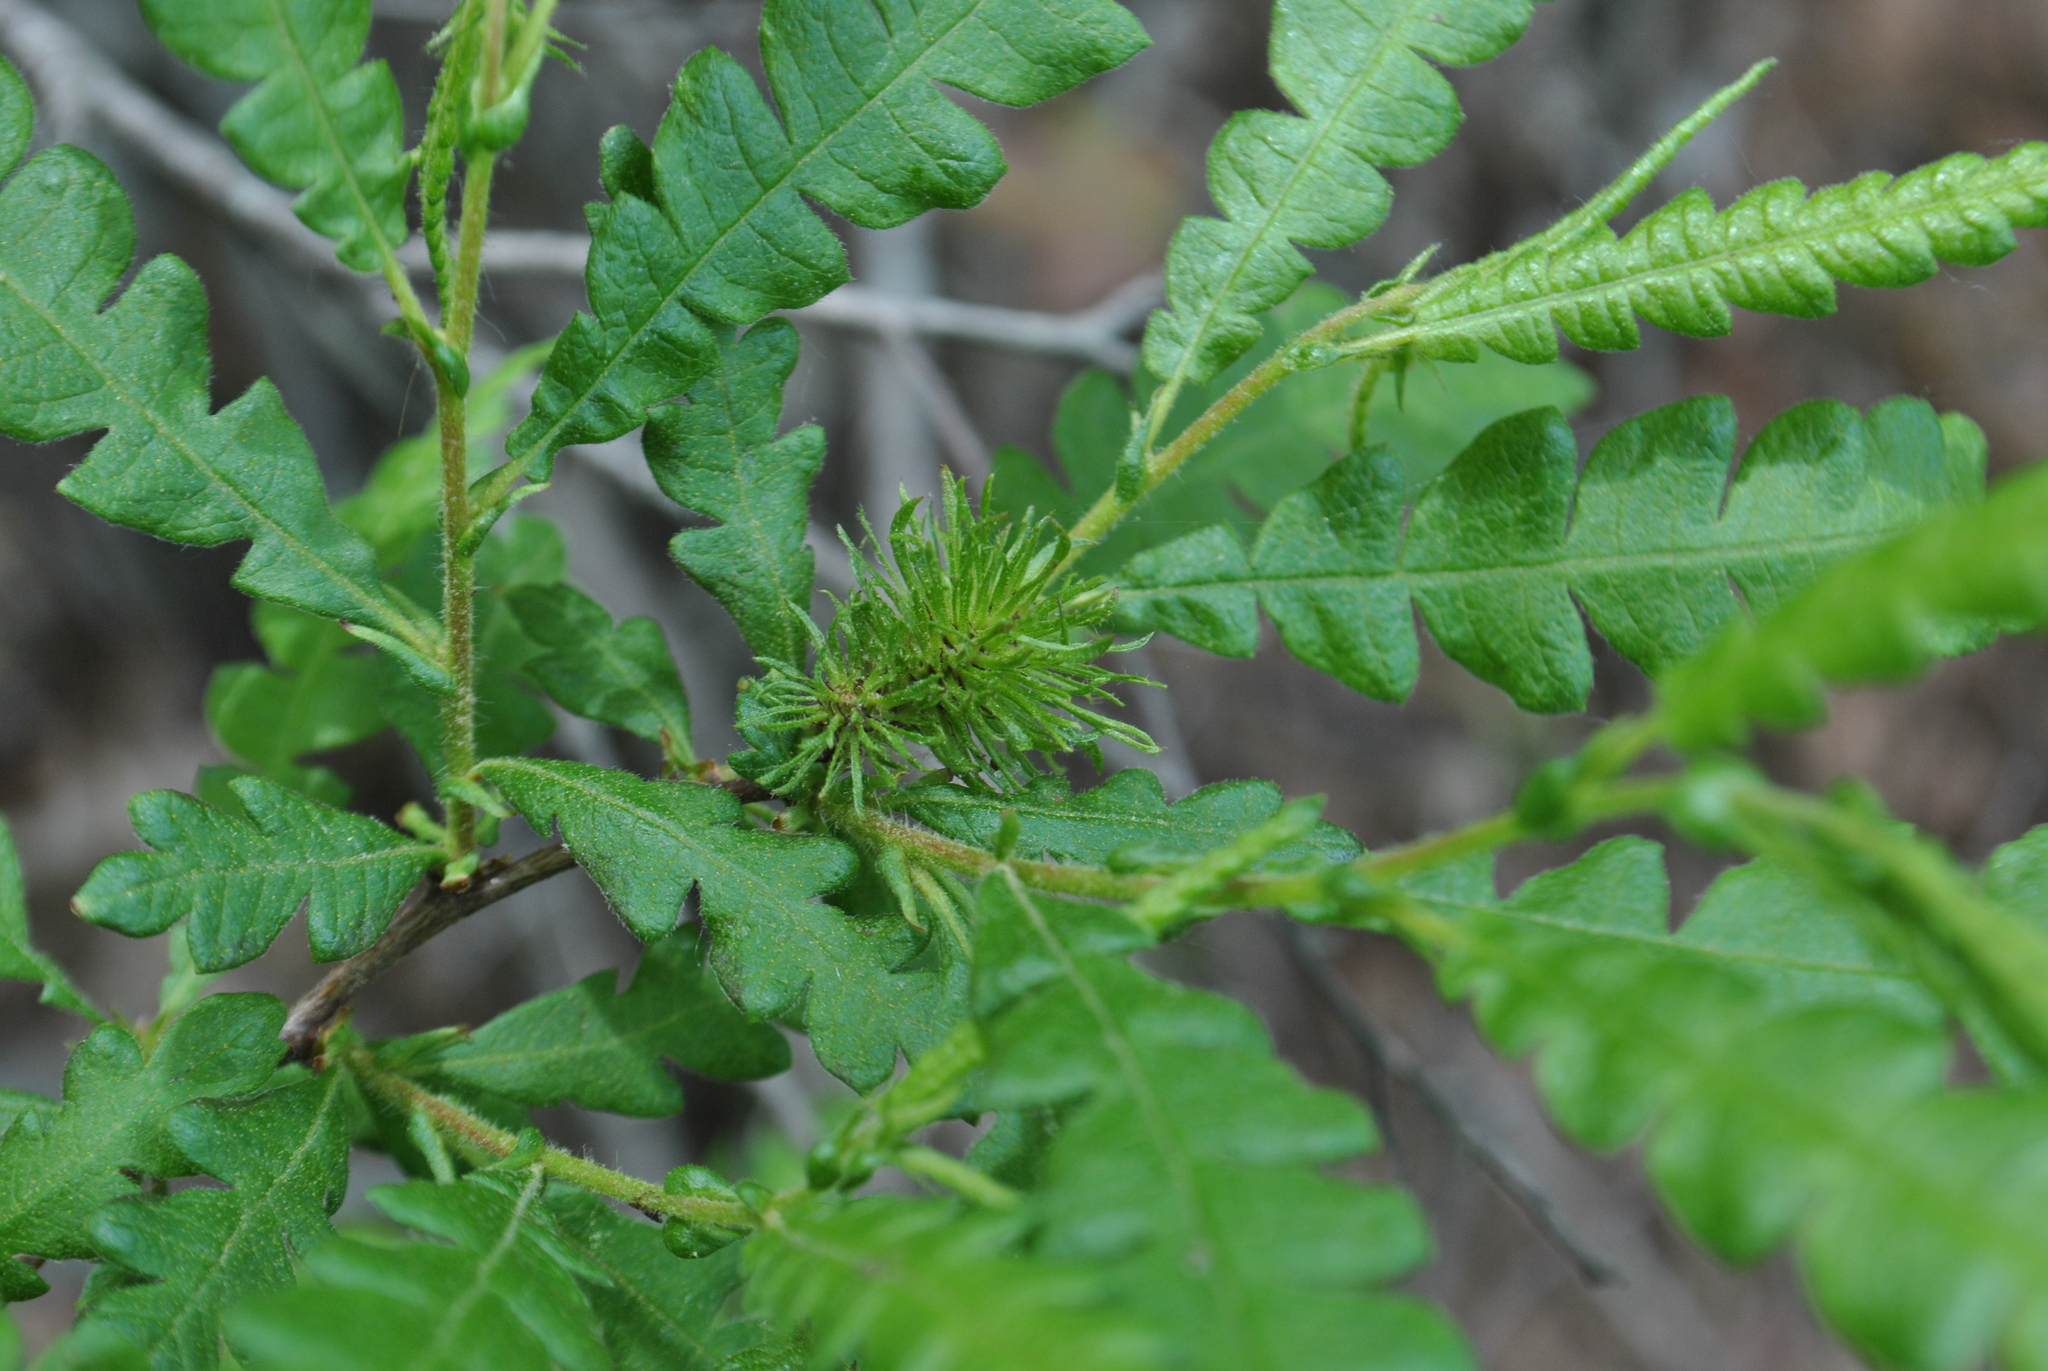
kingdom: Plantae
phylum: Tracheophyta
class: Magnoliopsida
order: Fagales
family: Myricaceae
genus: Comptonia
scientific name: Comptonia peregrina
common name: Sweet-fern
